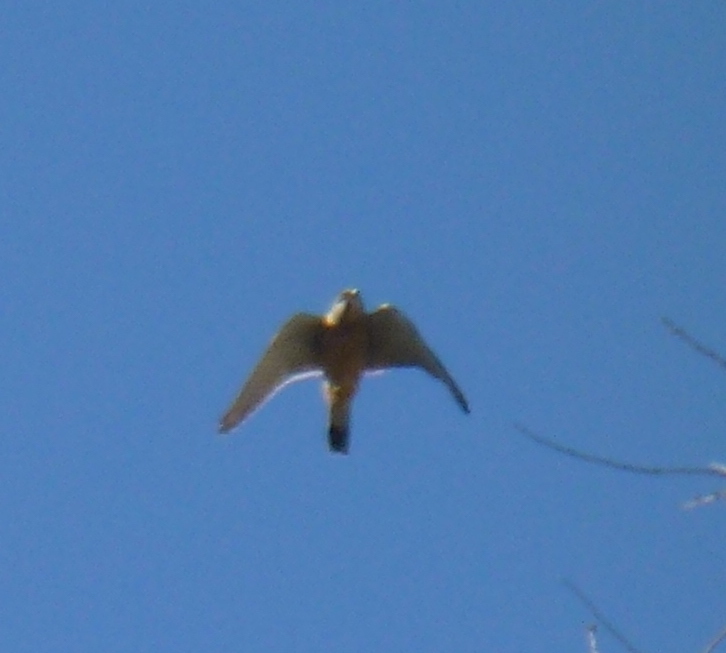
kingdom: Animalia
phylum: Chordata
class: Aves
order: Falconiformes
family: Falconidae
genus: Falco
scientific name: Falco naumanni
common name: Lesser kestrel
